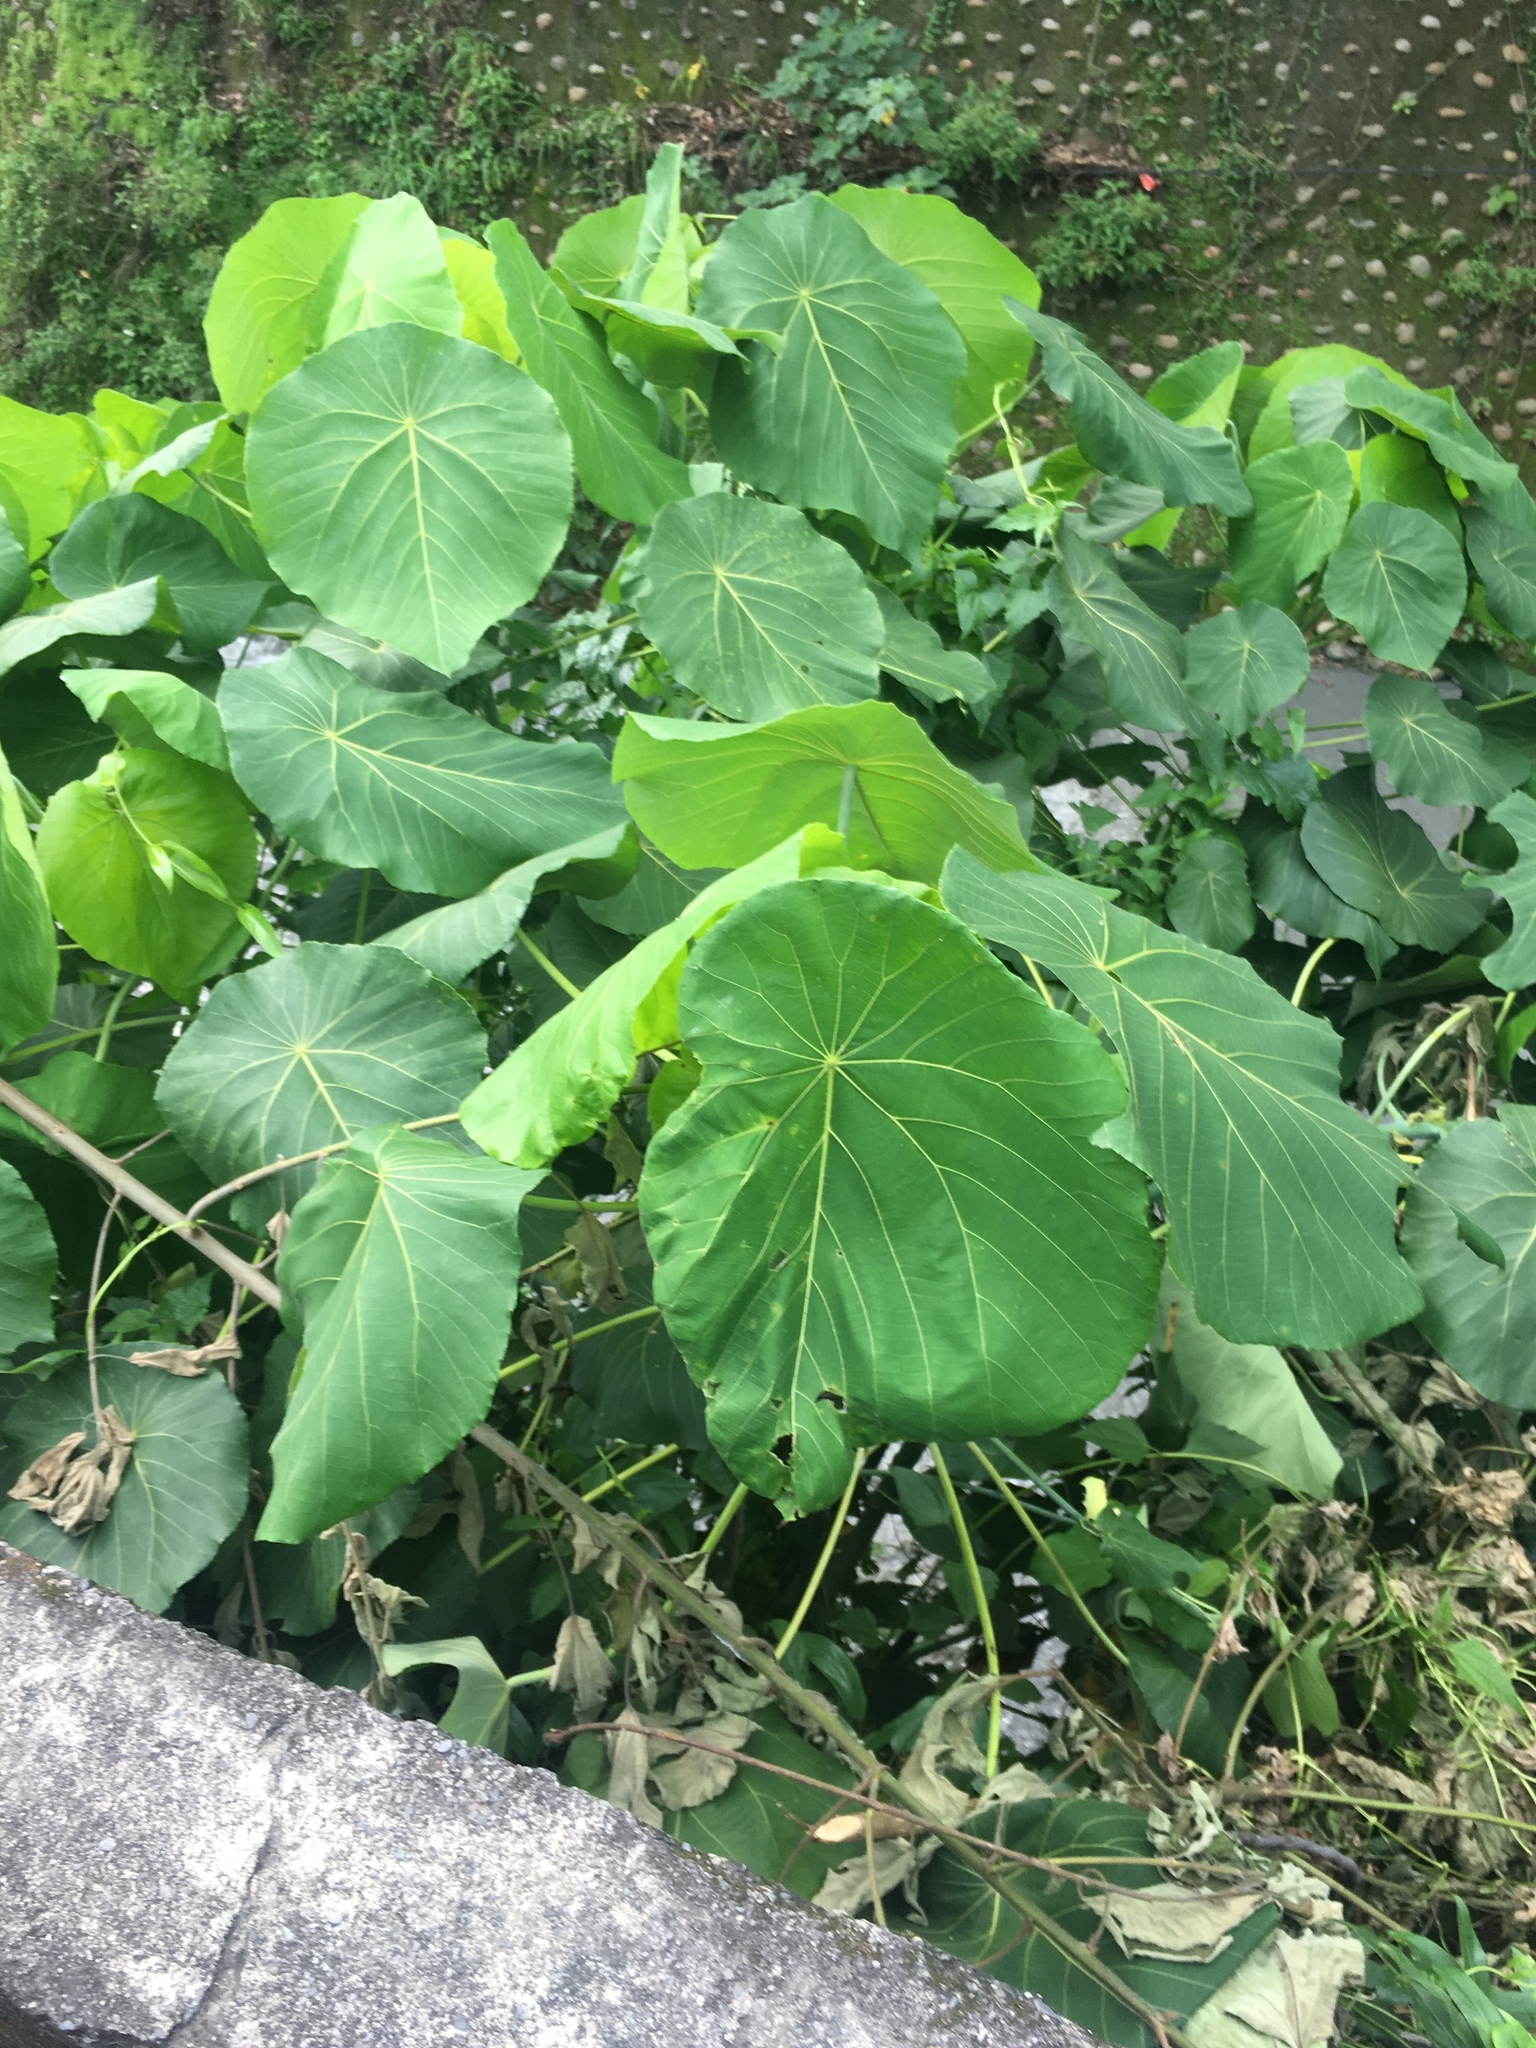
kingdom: Plantae
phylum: Tracheophyta
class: Magnoliopsida
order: Malpighiales
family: Euphorbiaceae
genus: Macaranga
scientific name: Macaranga tanarius
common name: Parasol leaf tree
